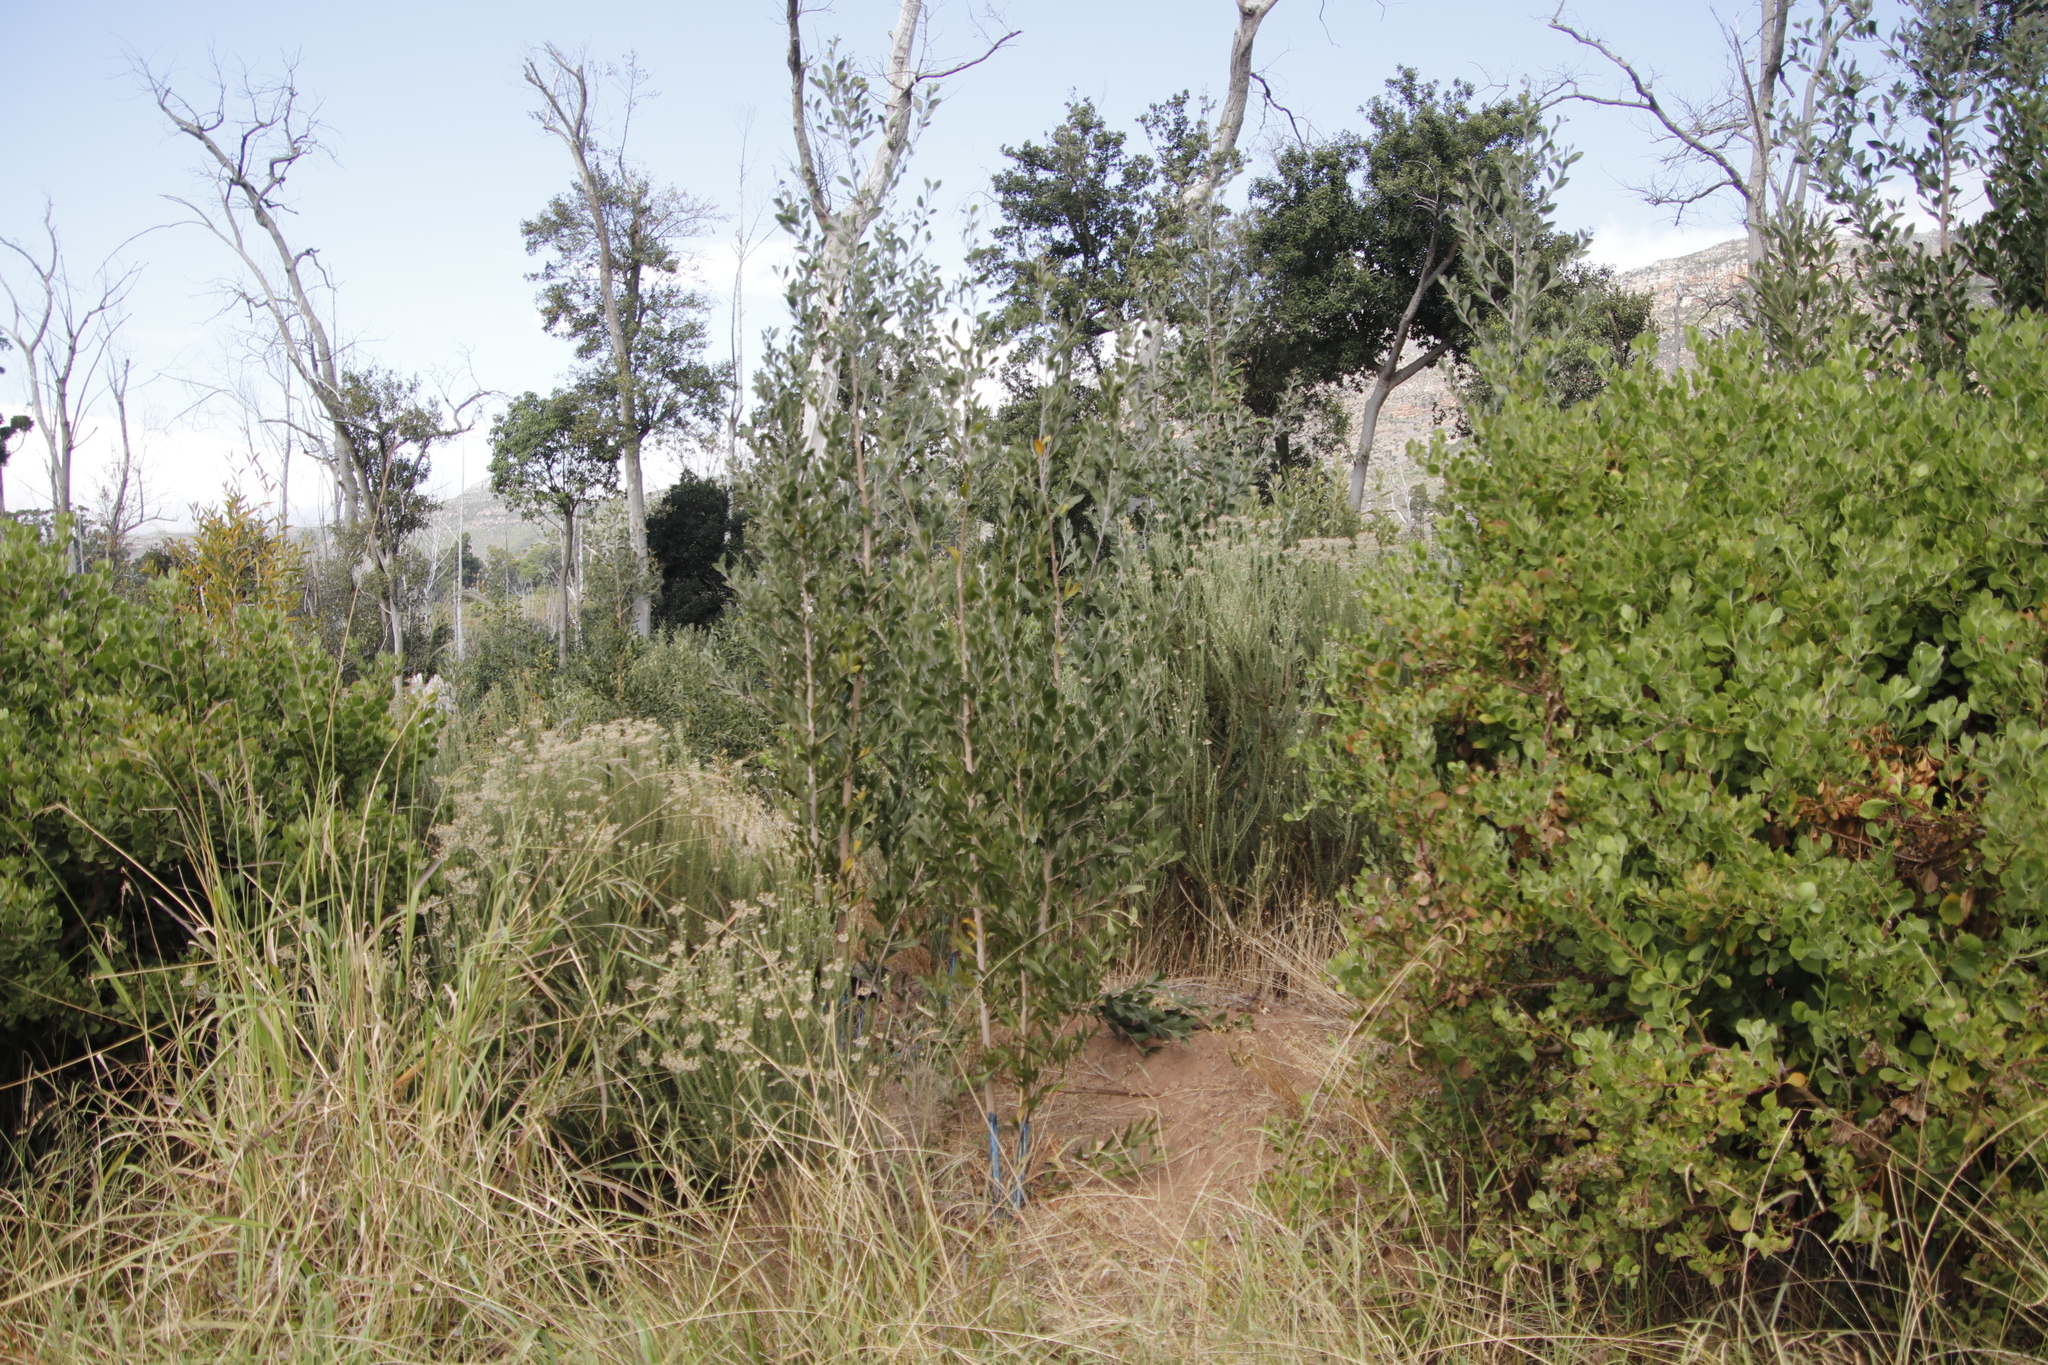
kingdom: Plantae
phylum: Tracheophyta
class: Magnoliopsida
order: Fabales
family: Fabaceae
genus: Acacia
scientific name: Acacia melanoxylon
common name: Blackwood
